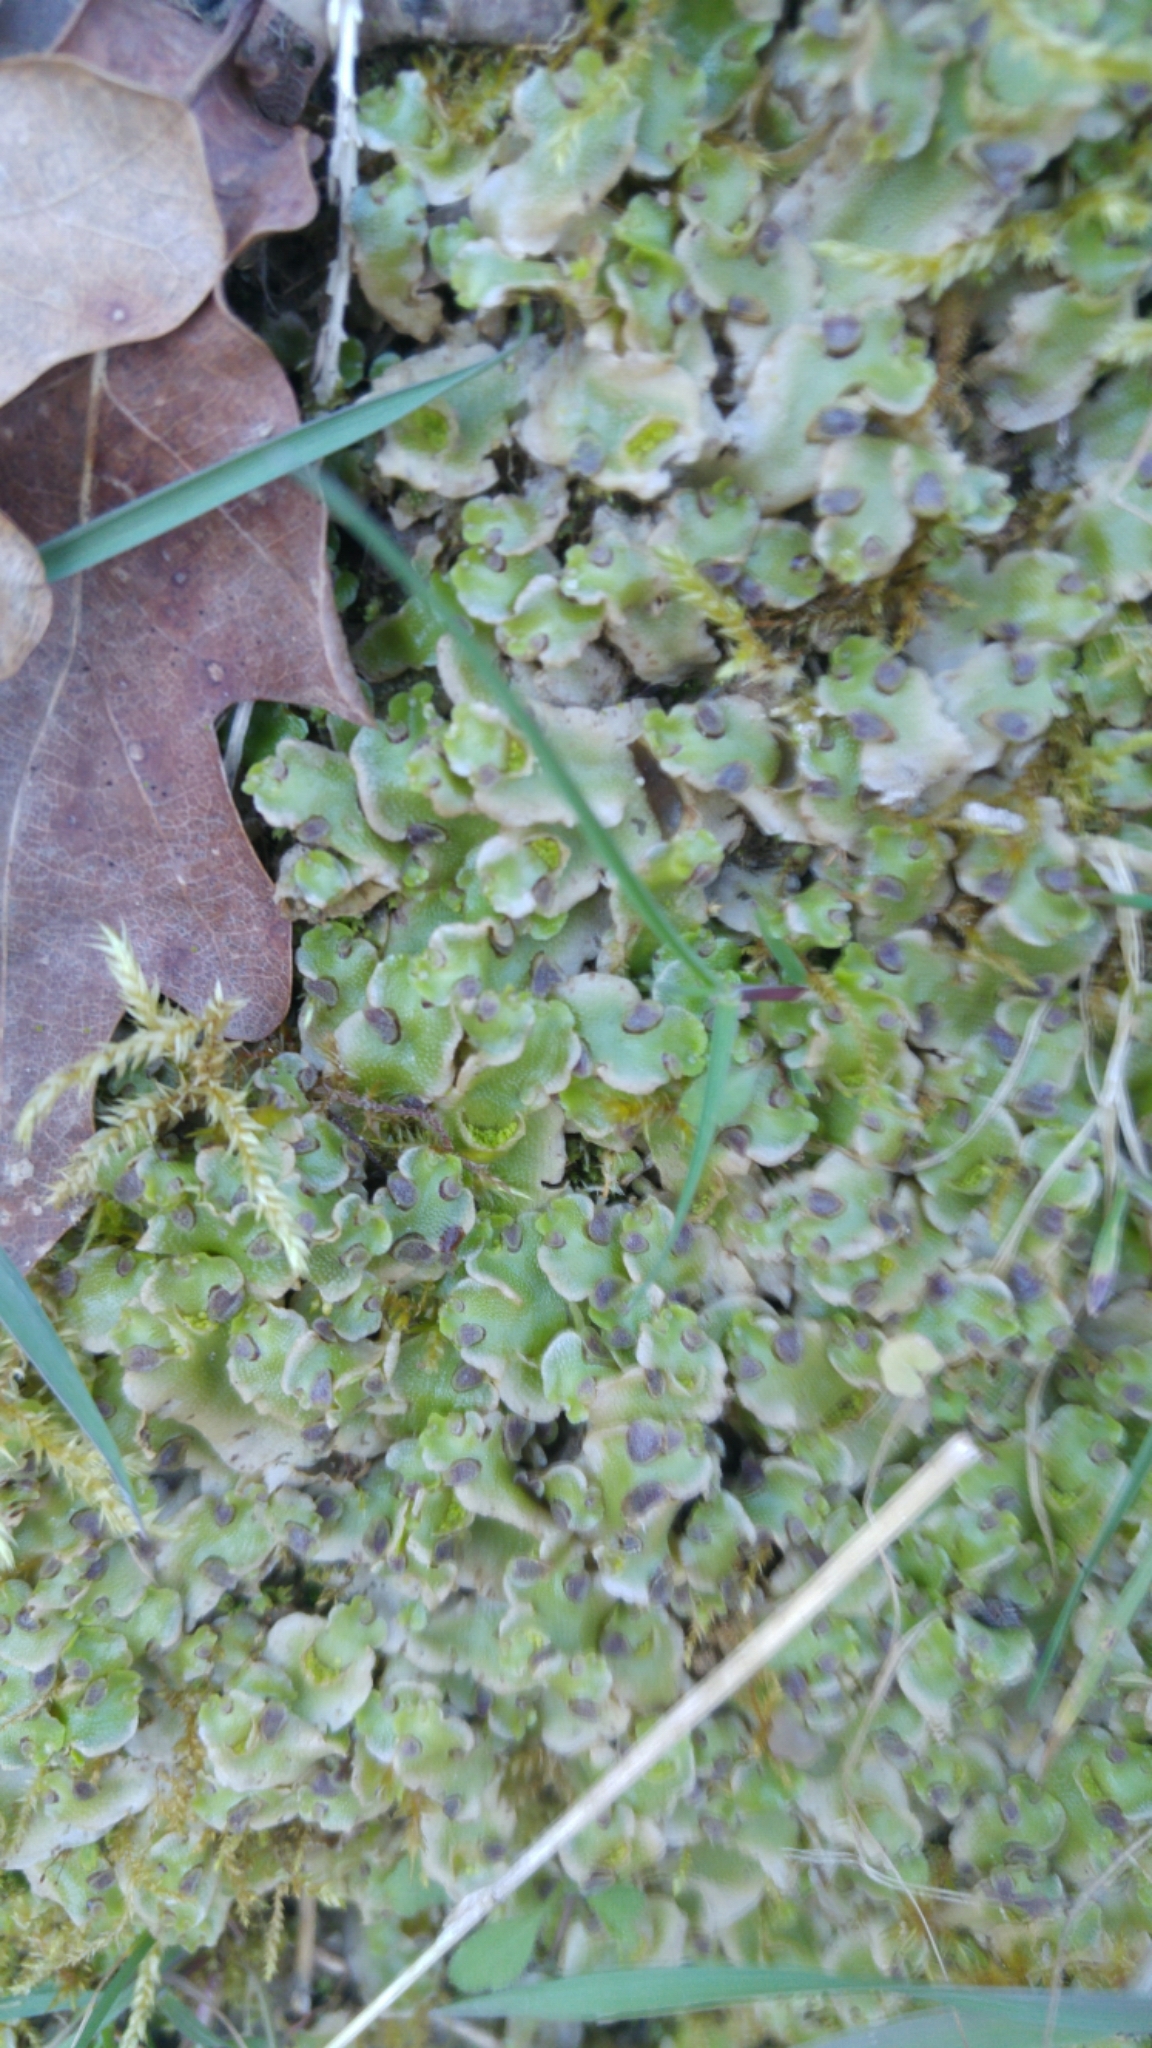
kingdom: Plantae
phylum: Marchantiophyta
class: Marchantiopsida
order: Lunulariales
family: Lunulariaceae
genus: Lunularia
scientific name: Lunularia cruciata
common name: Crescent-cup liverwort
